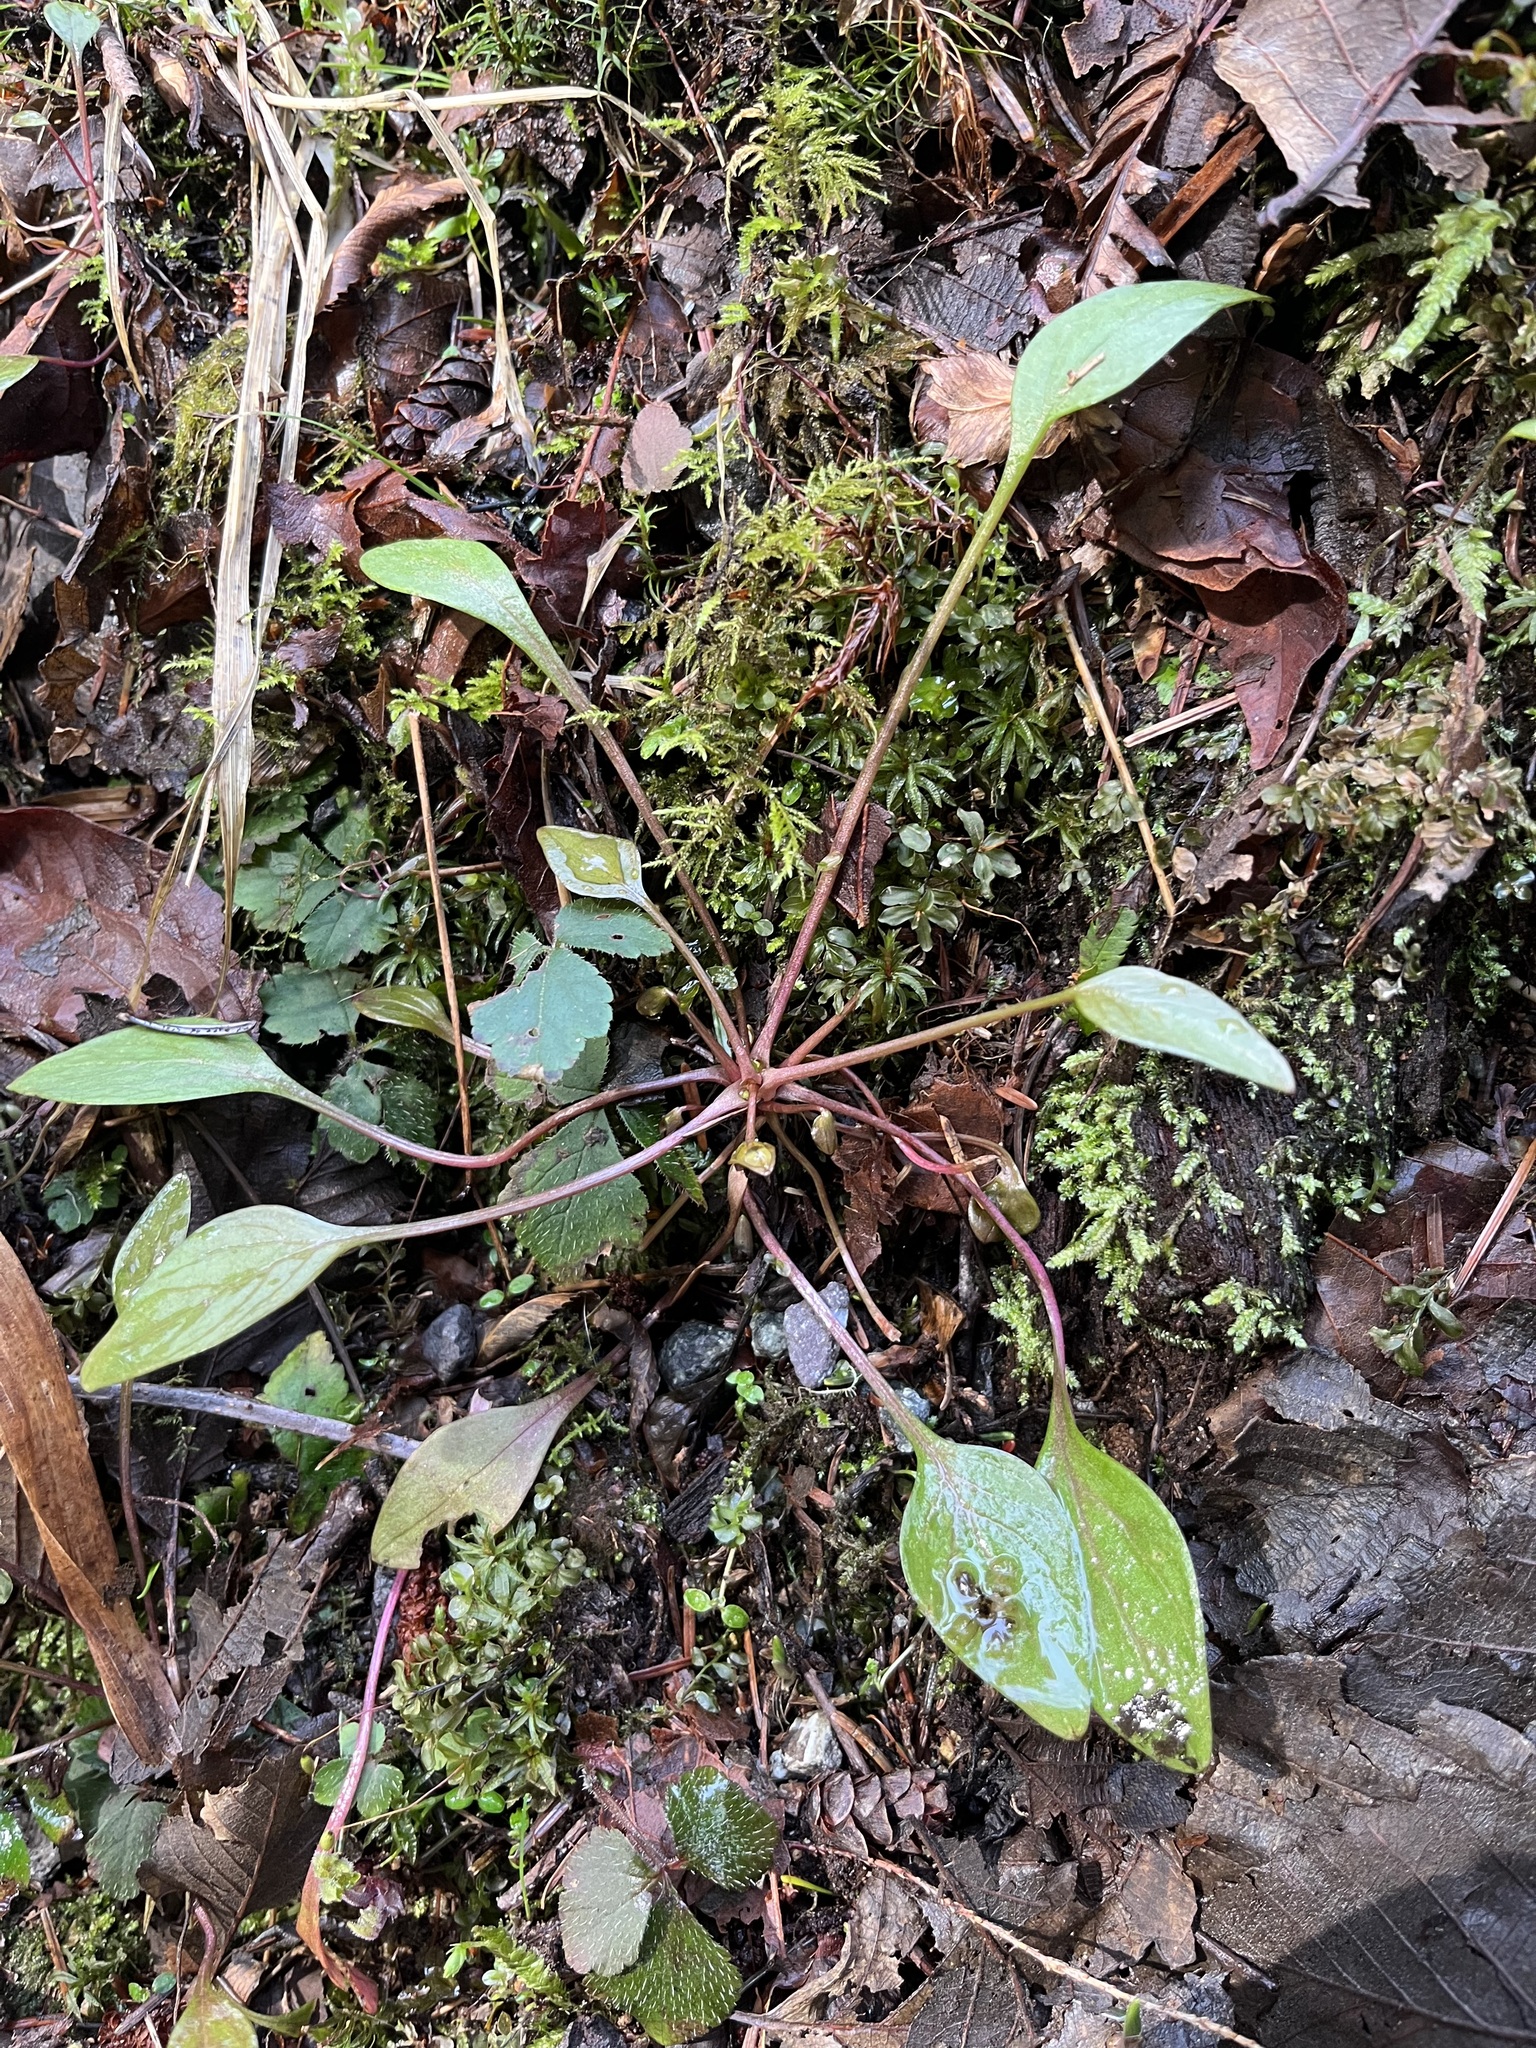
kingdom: Plantae
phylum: Tracheophyta
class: Magnoliopsida
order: Caryophyllales
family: Montiaceae
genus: Claytonia
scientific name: Claytonia sibirica
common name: Pink purslane
